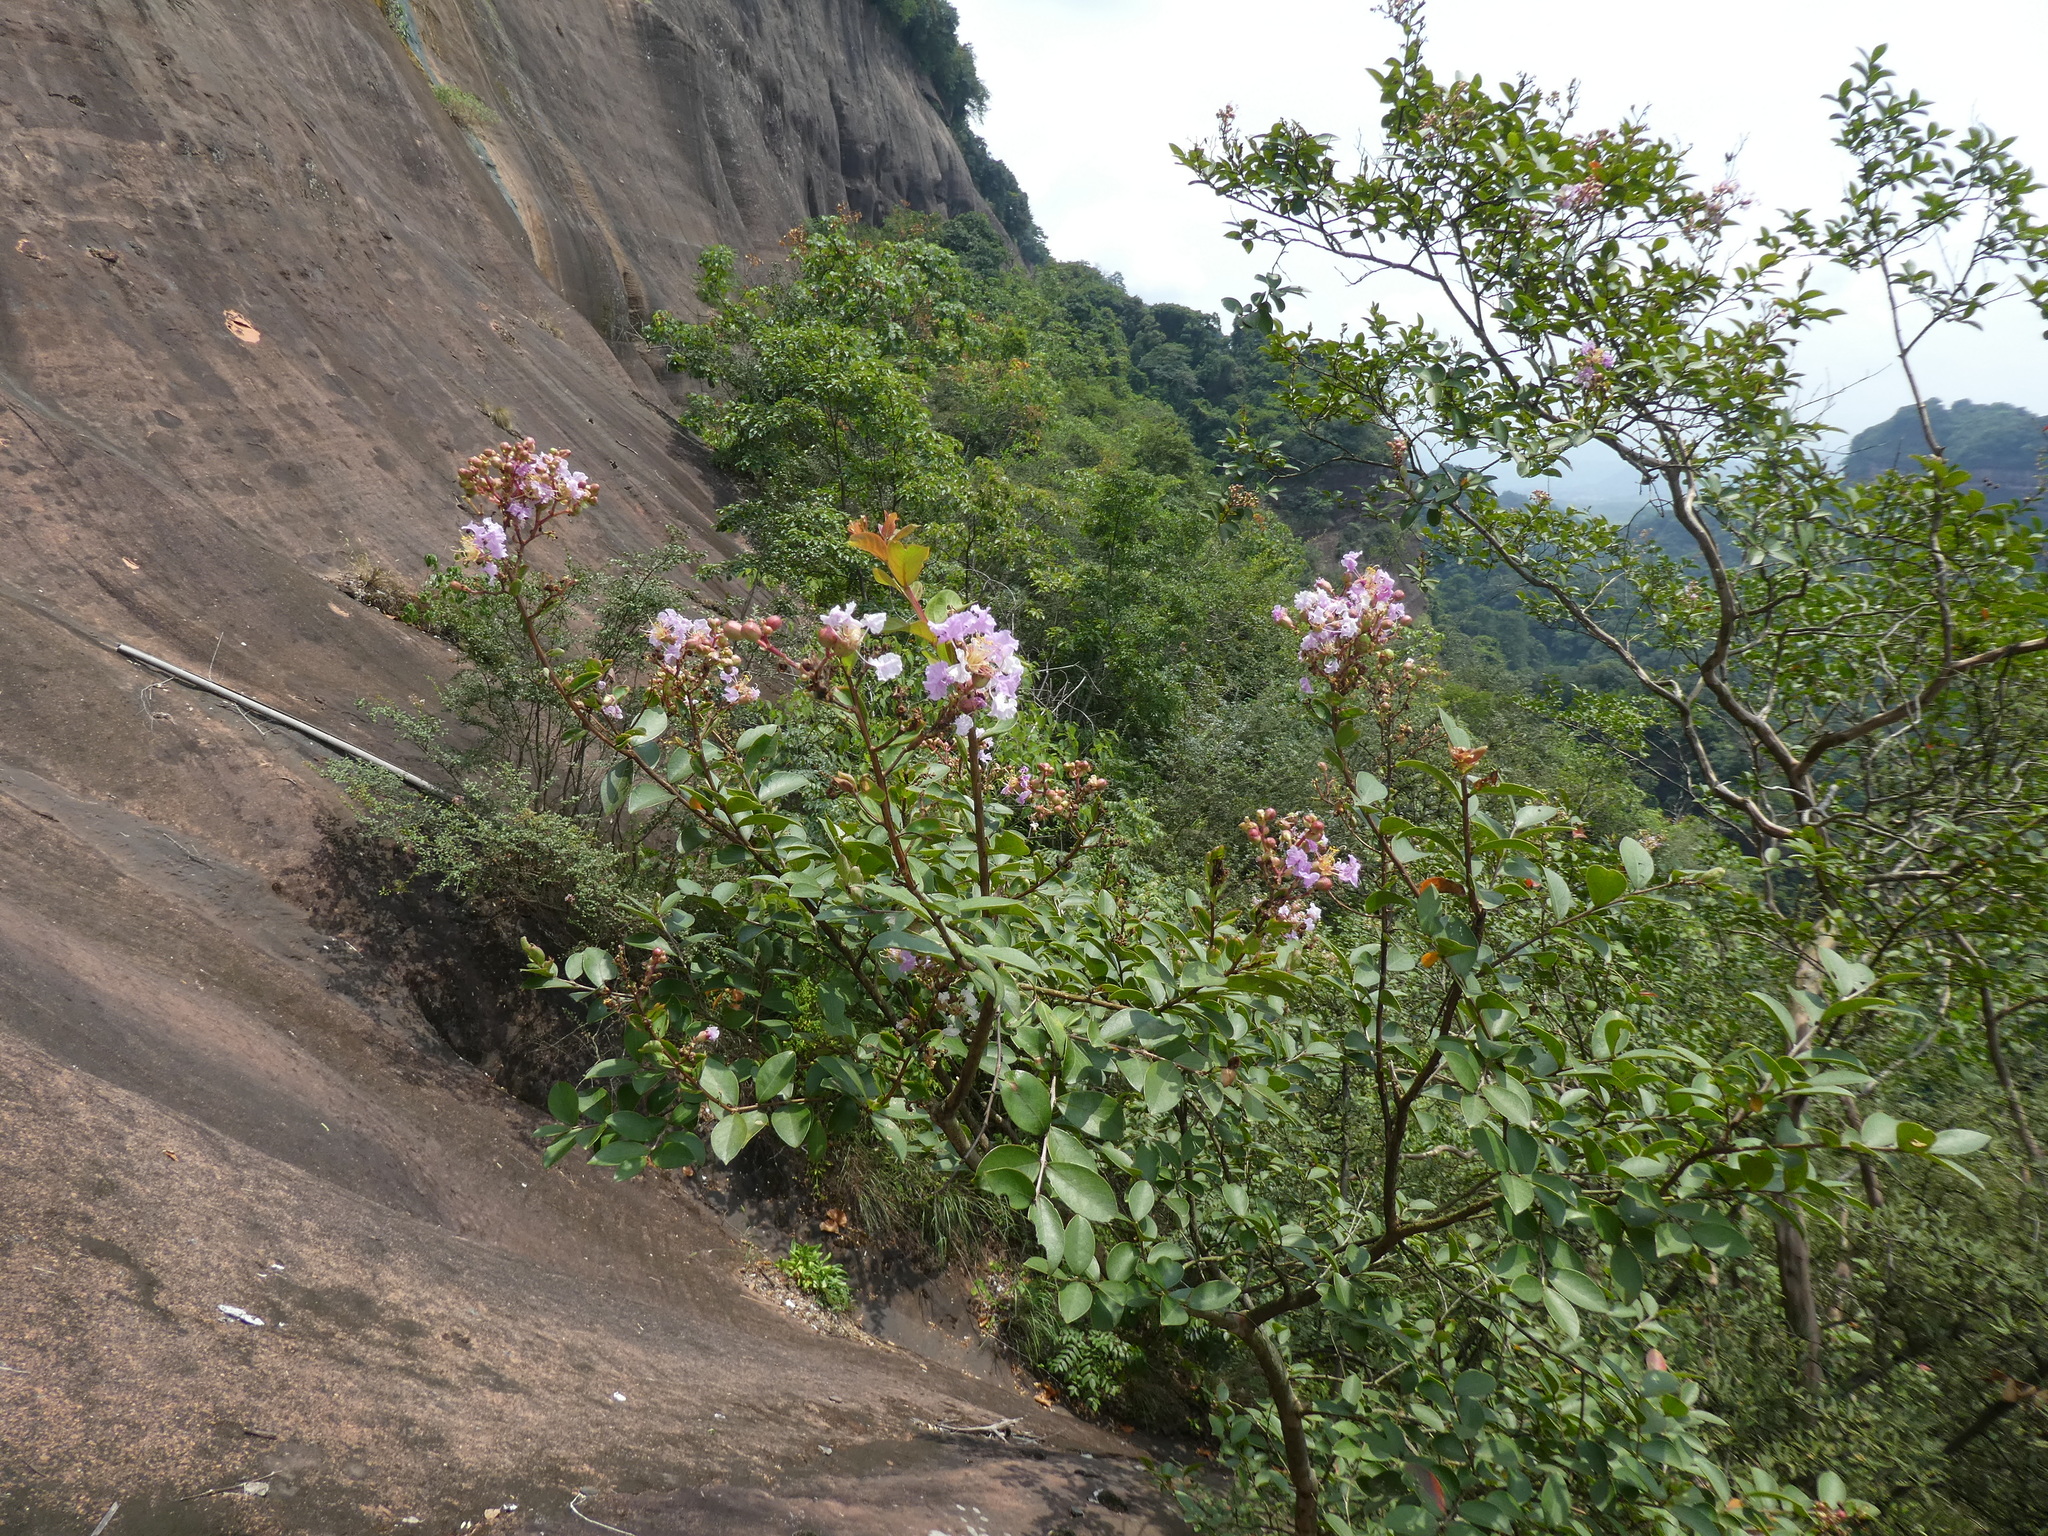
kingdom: Plantae
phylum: Tracheophyta
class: Magnoliopsida
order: Myrtales
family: Lythraceae
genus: Lagerstroemia
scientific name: Lagerstroemia indica
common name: Crape-myrtle
